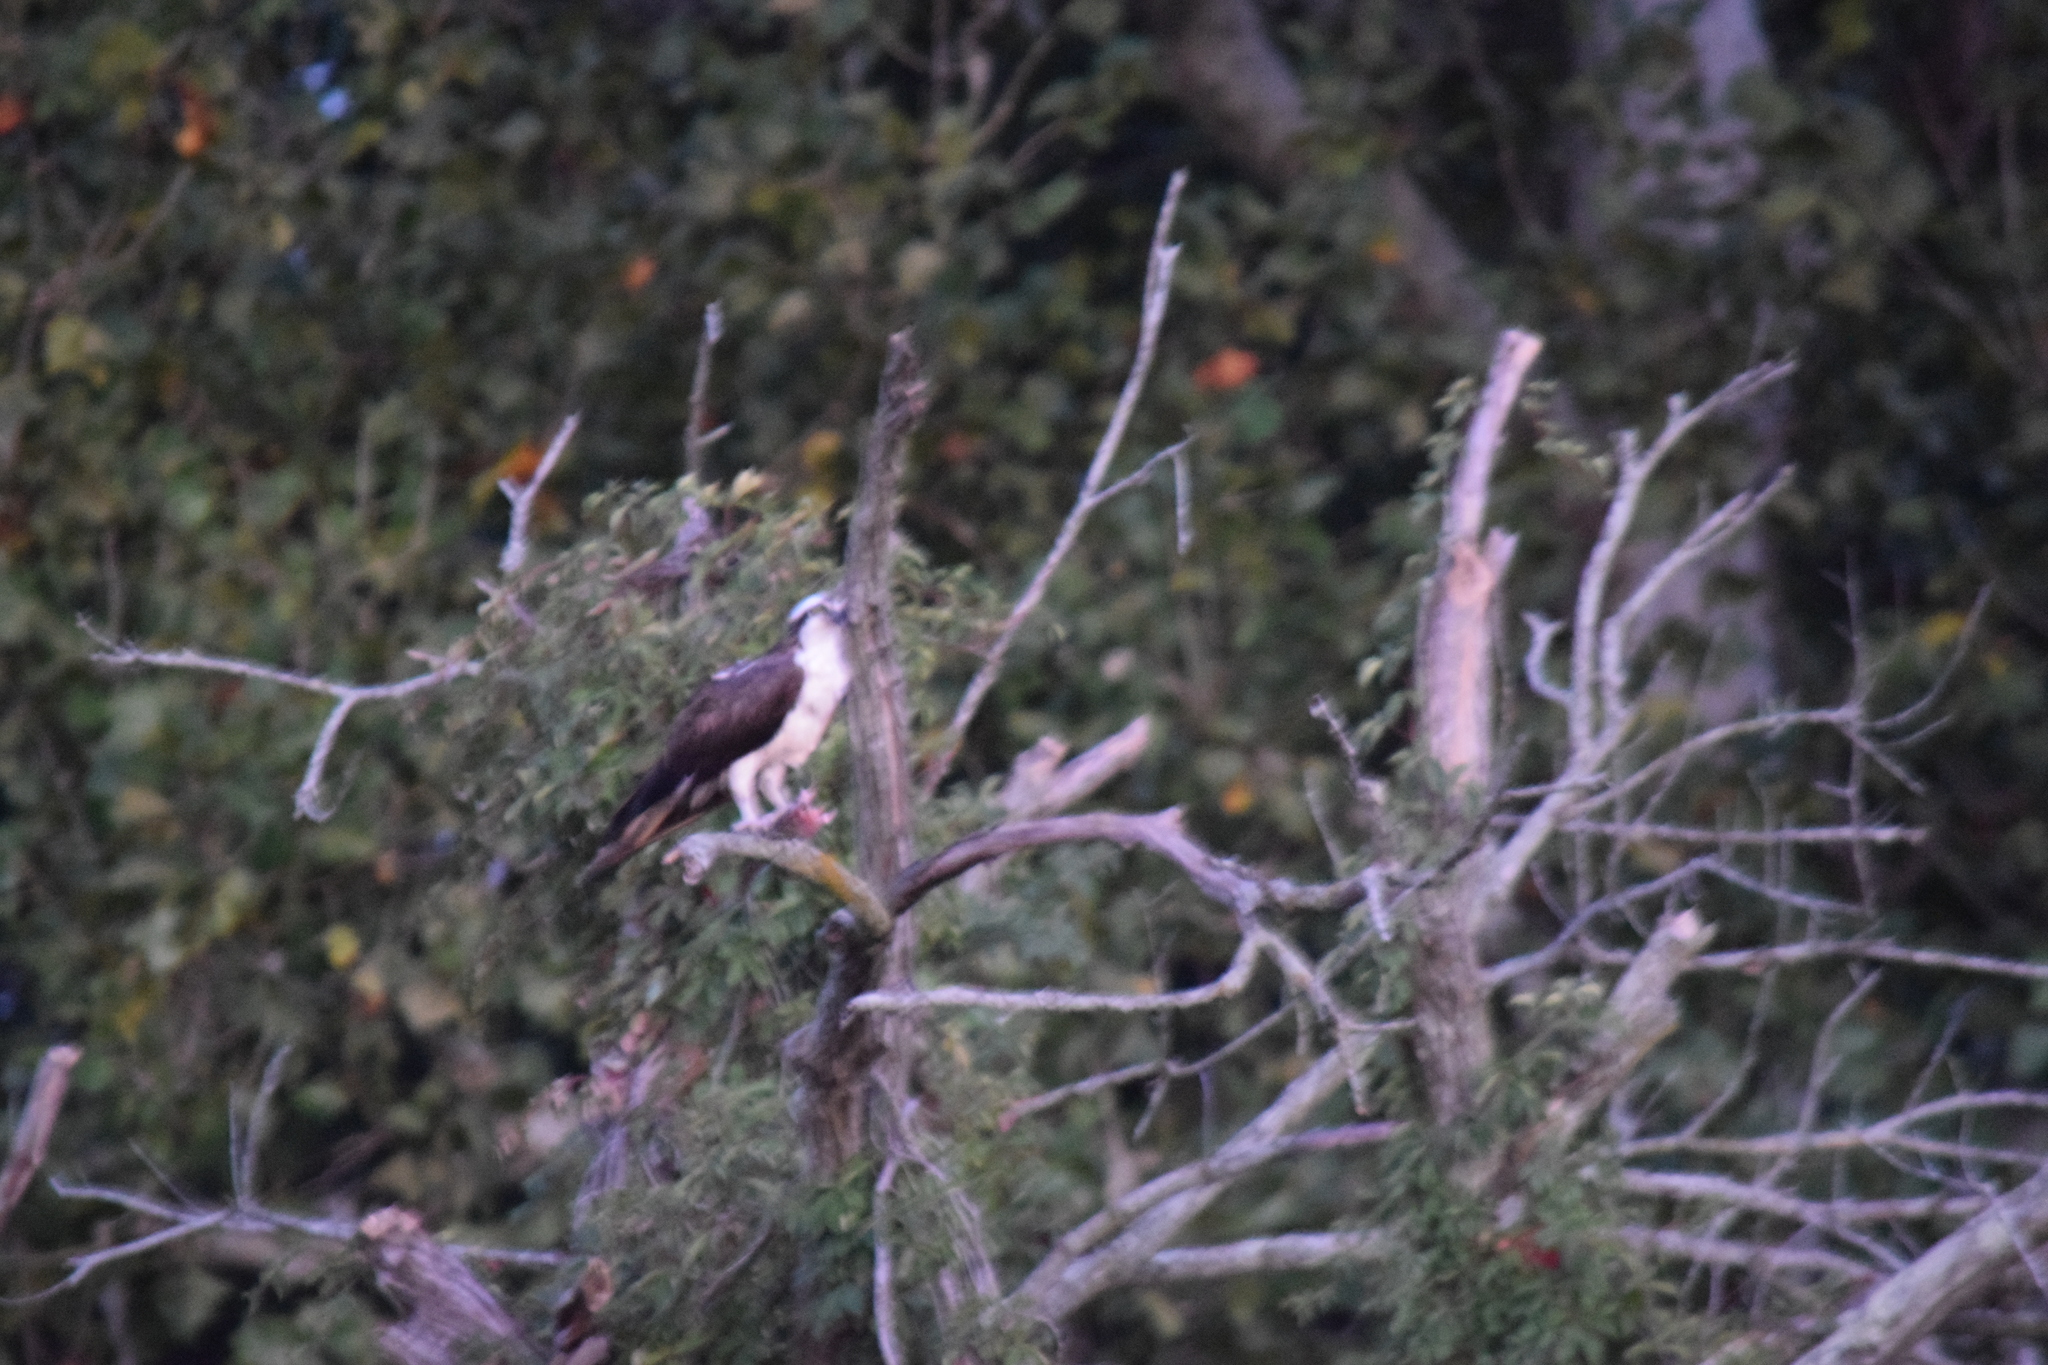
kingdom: Animalia
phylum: Chordata
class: Aves
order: Accipitriformes
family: Pandionidae
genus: Pandion
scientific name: Pandion haliaetus
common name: Osprey
